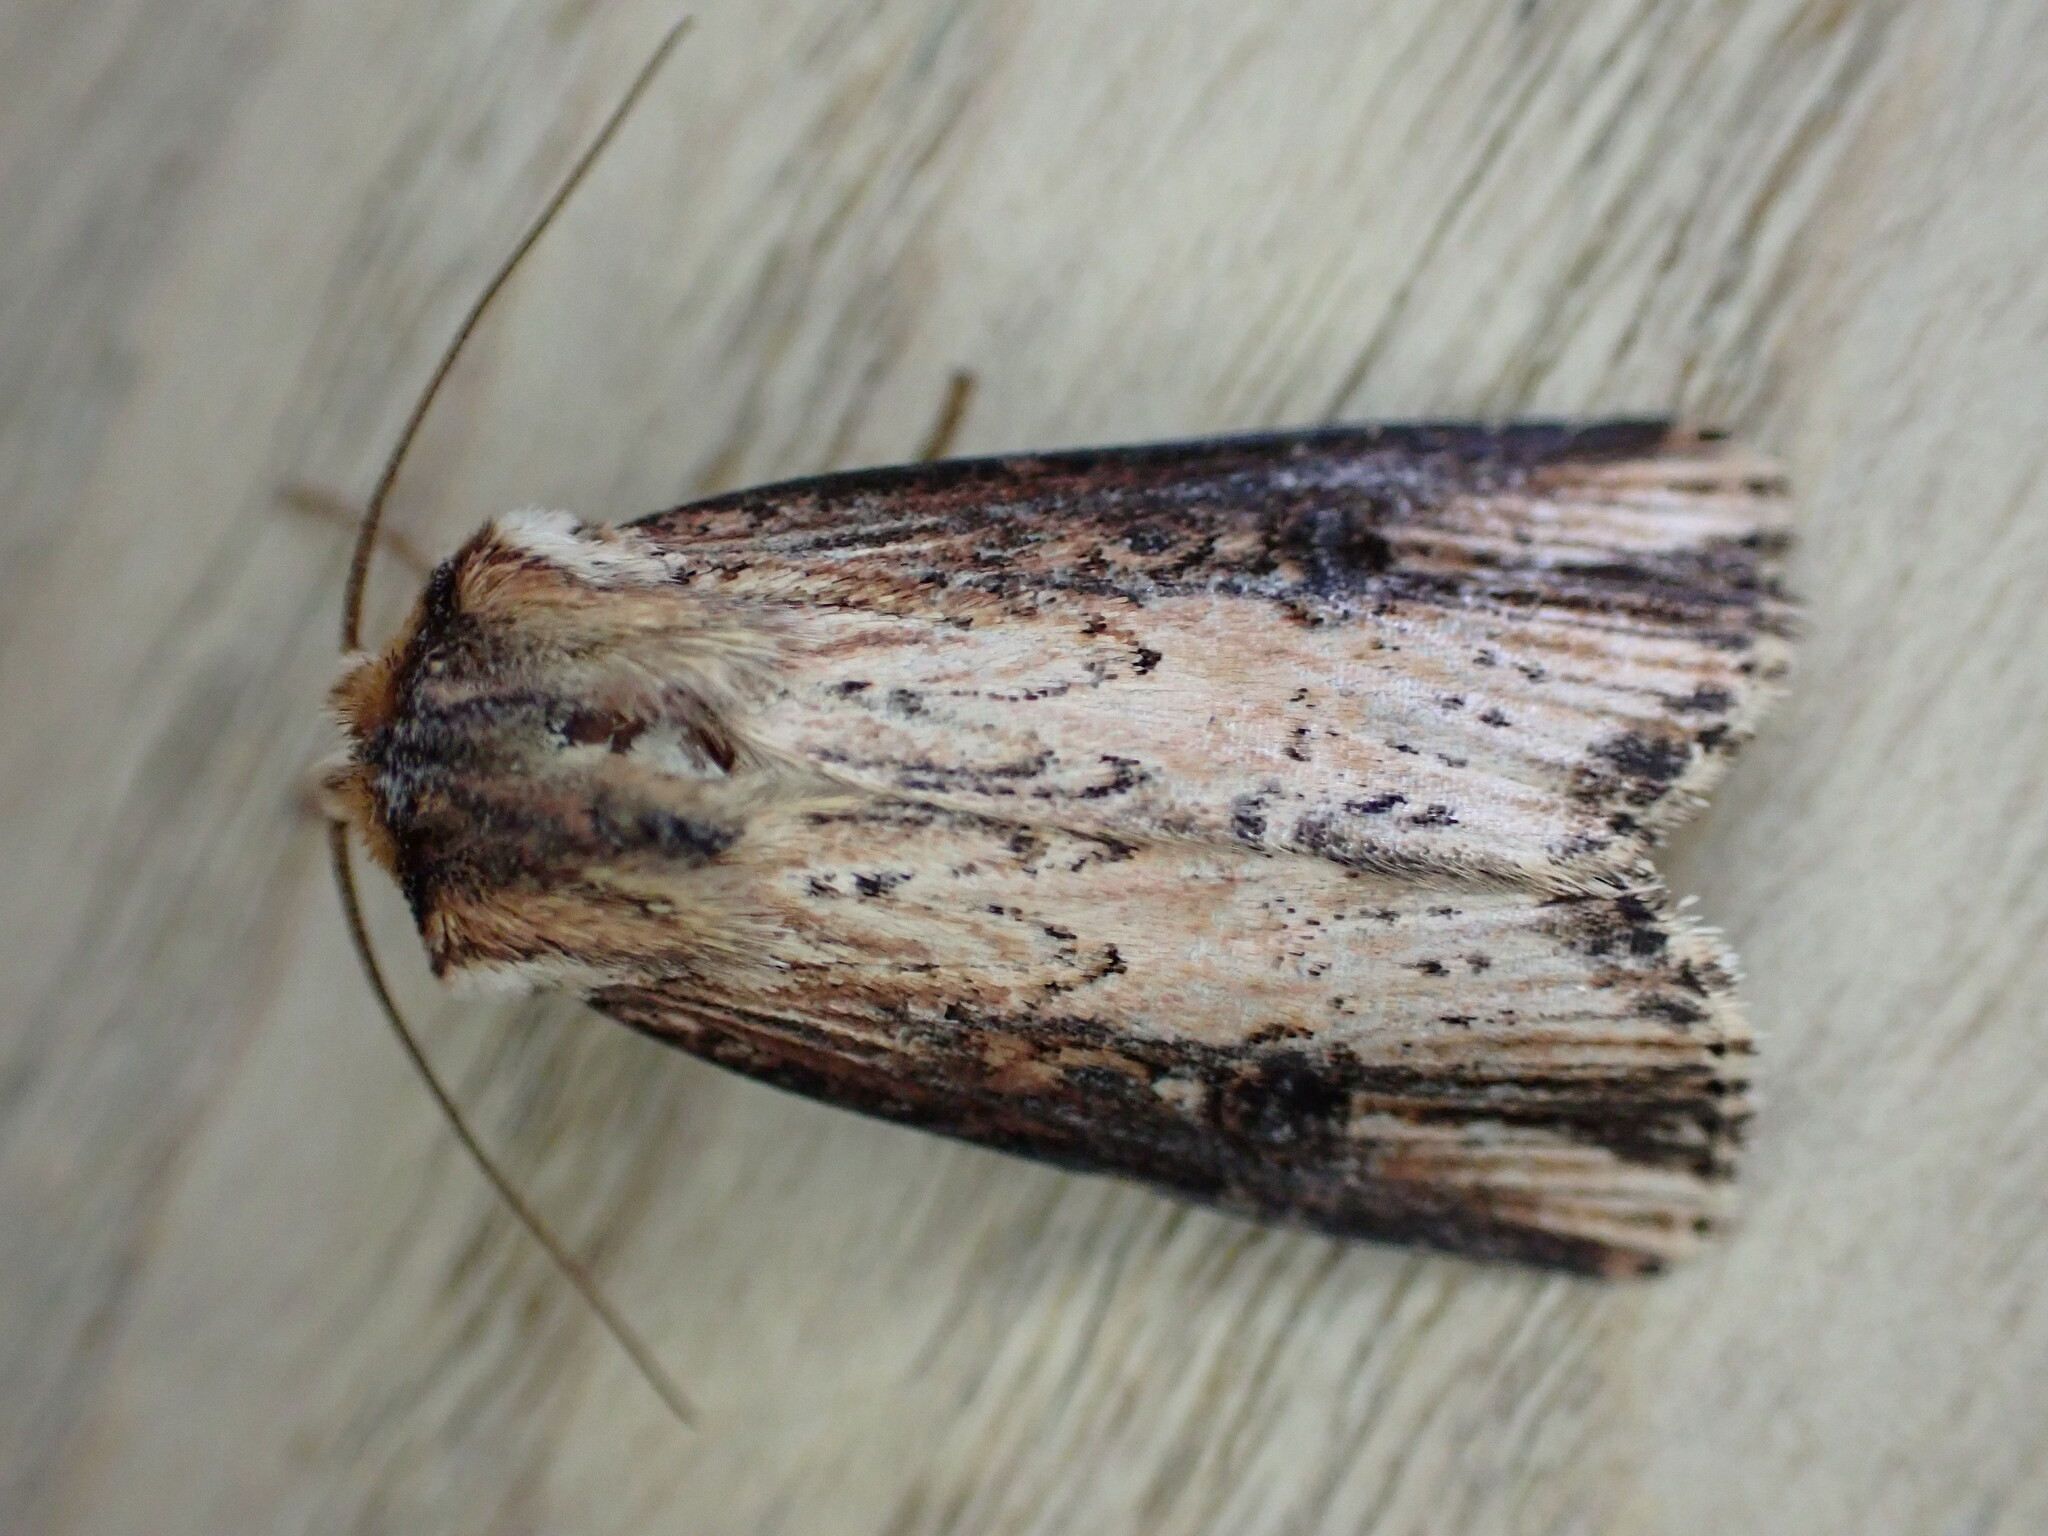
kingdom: Animalia
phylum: Arthropoda
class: Insecta
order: Lepidoptera
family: Noctuidae
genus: Axylia
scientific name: Axylia putris
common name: Flame
